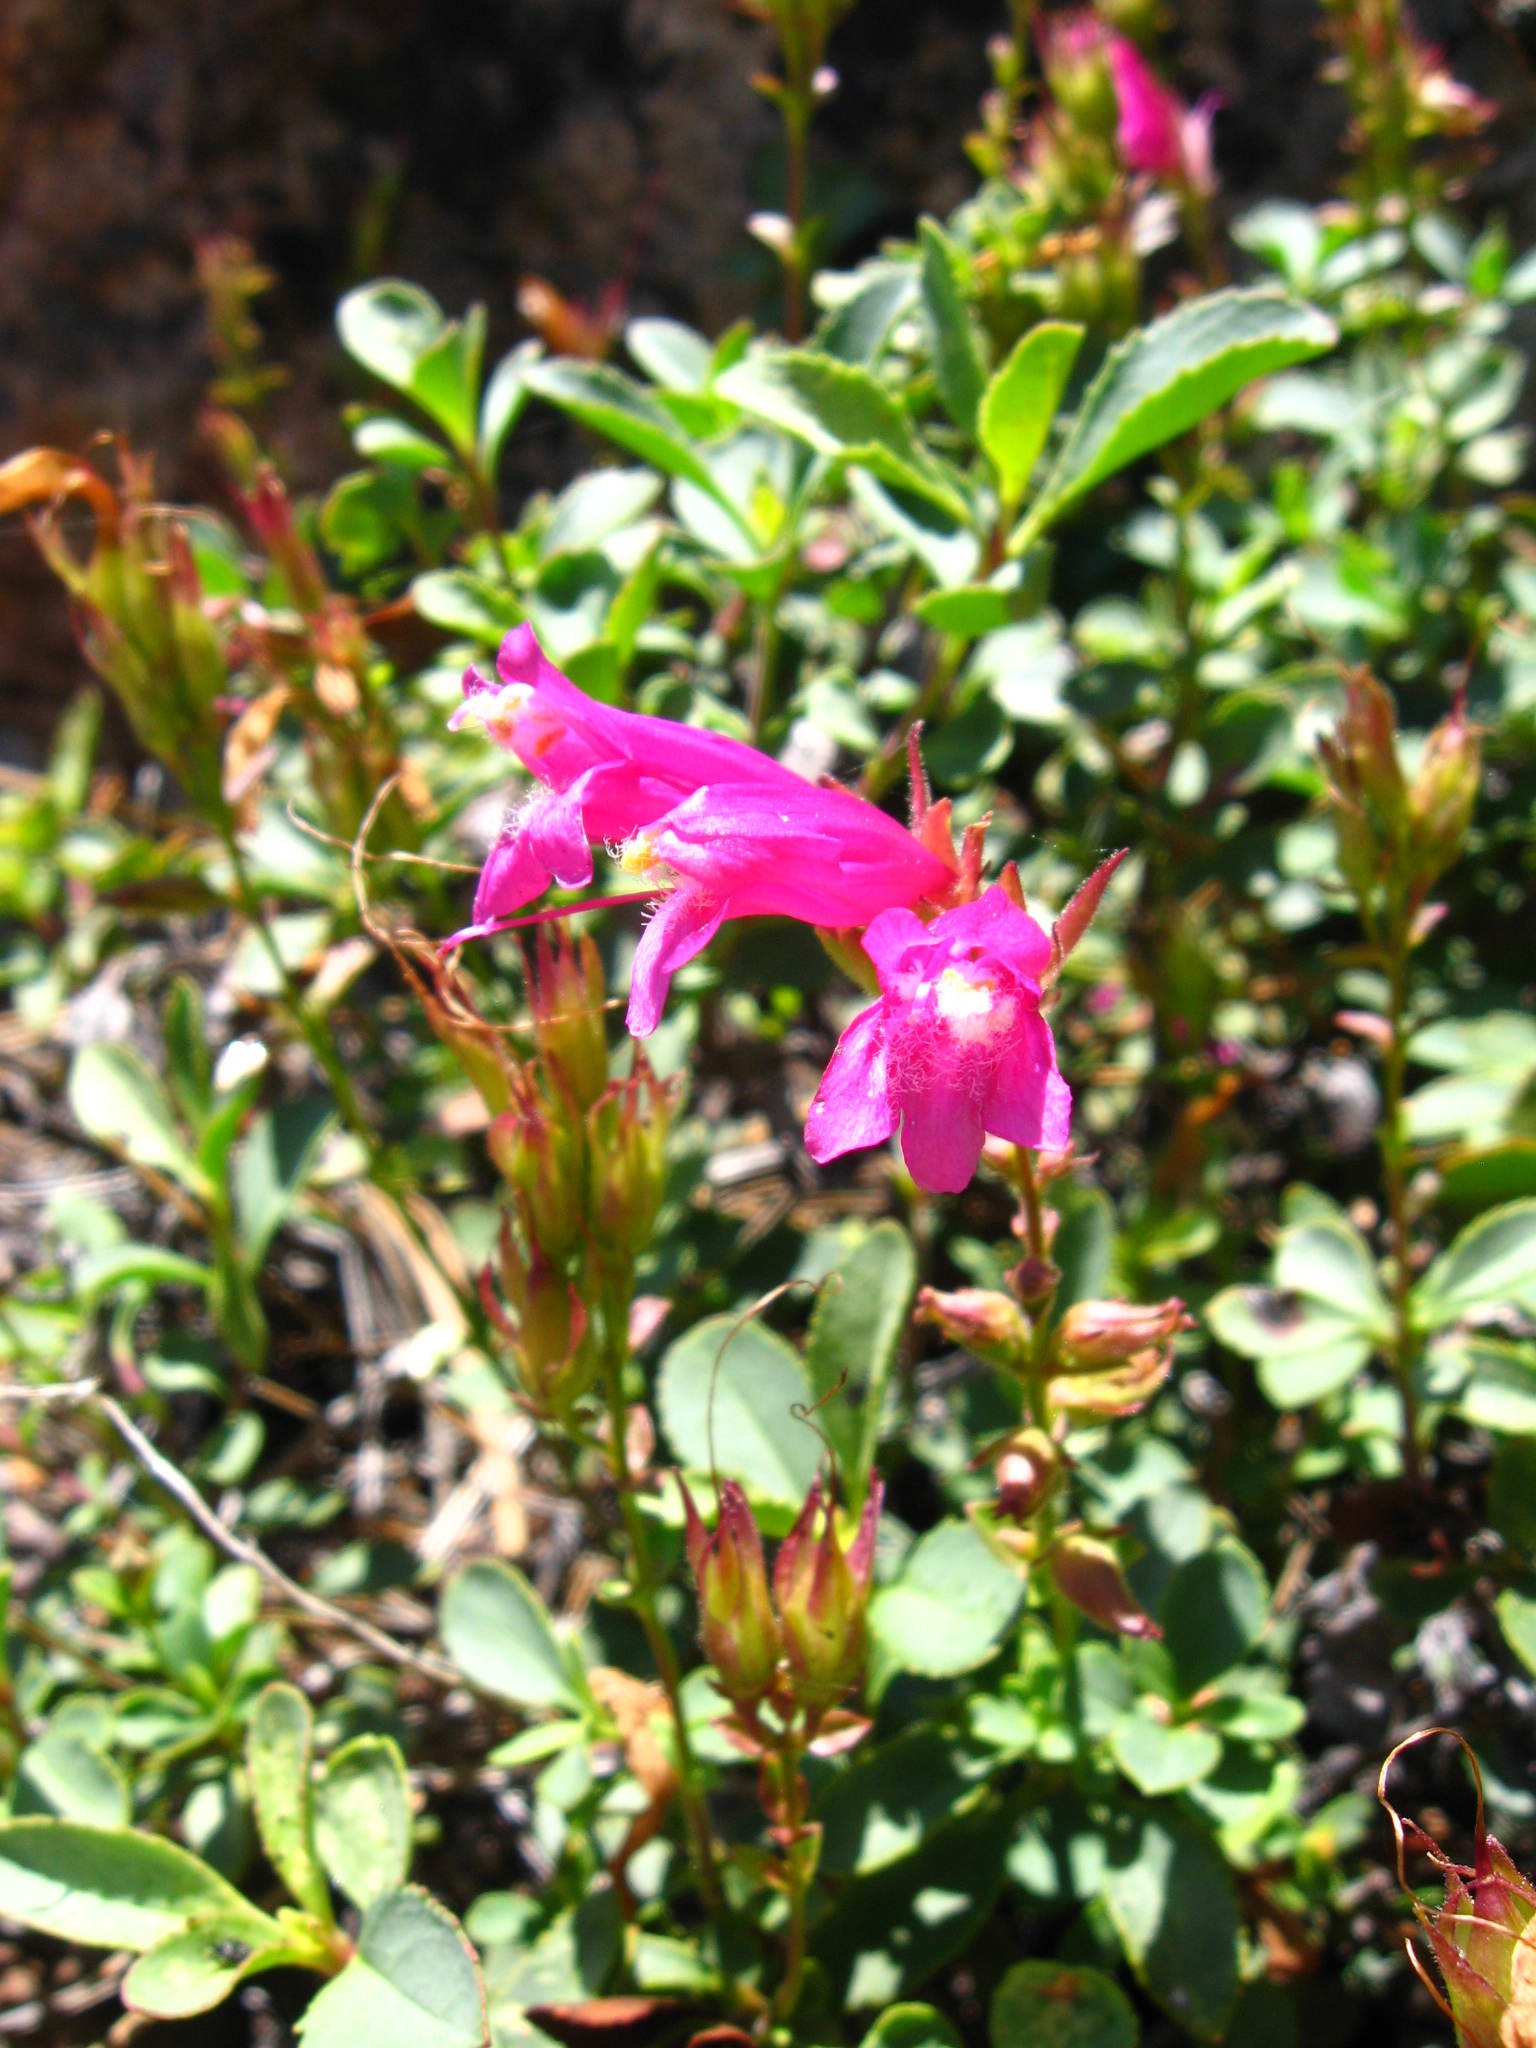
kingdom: Plantae
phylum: Tracheophyta
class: Magnoliopsida
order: Lamiales
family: Plantaginaceae
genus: Penstemon
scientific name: Penstemon newberryi
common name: Mountain-pride
